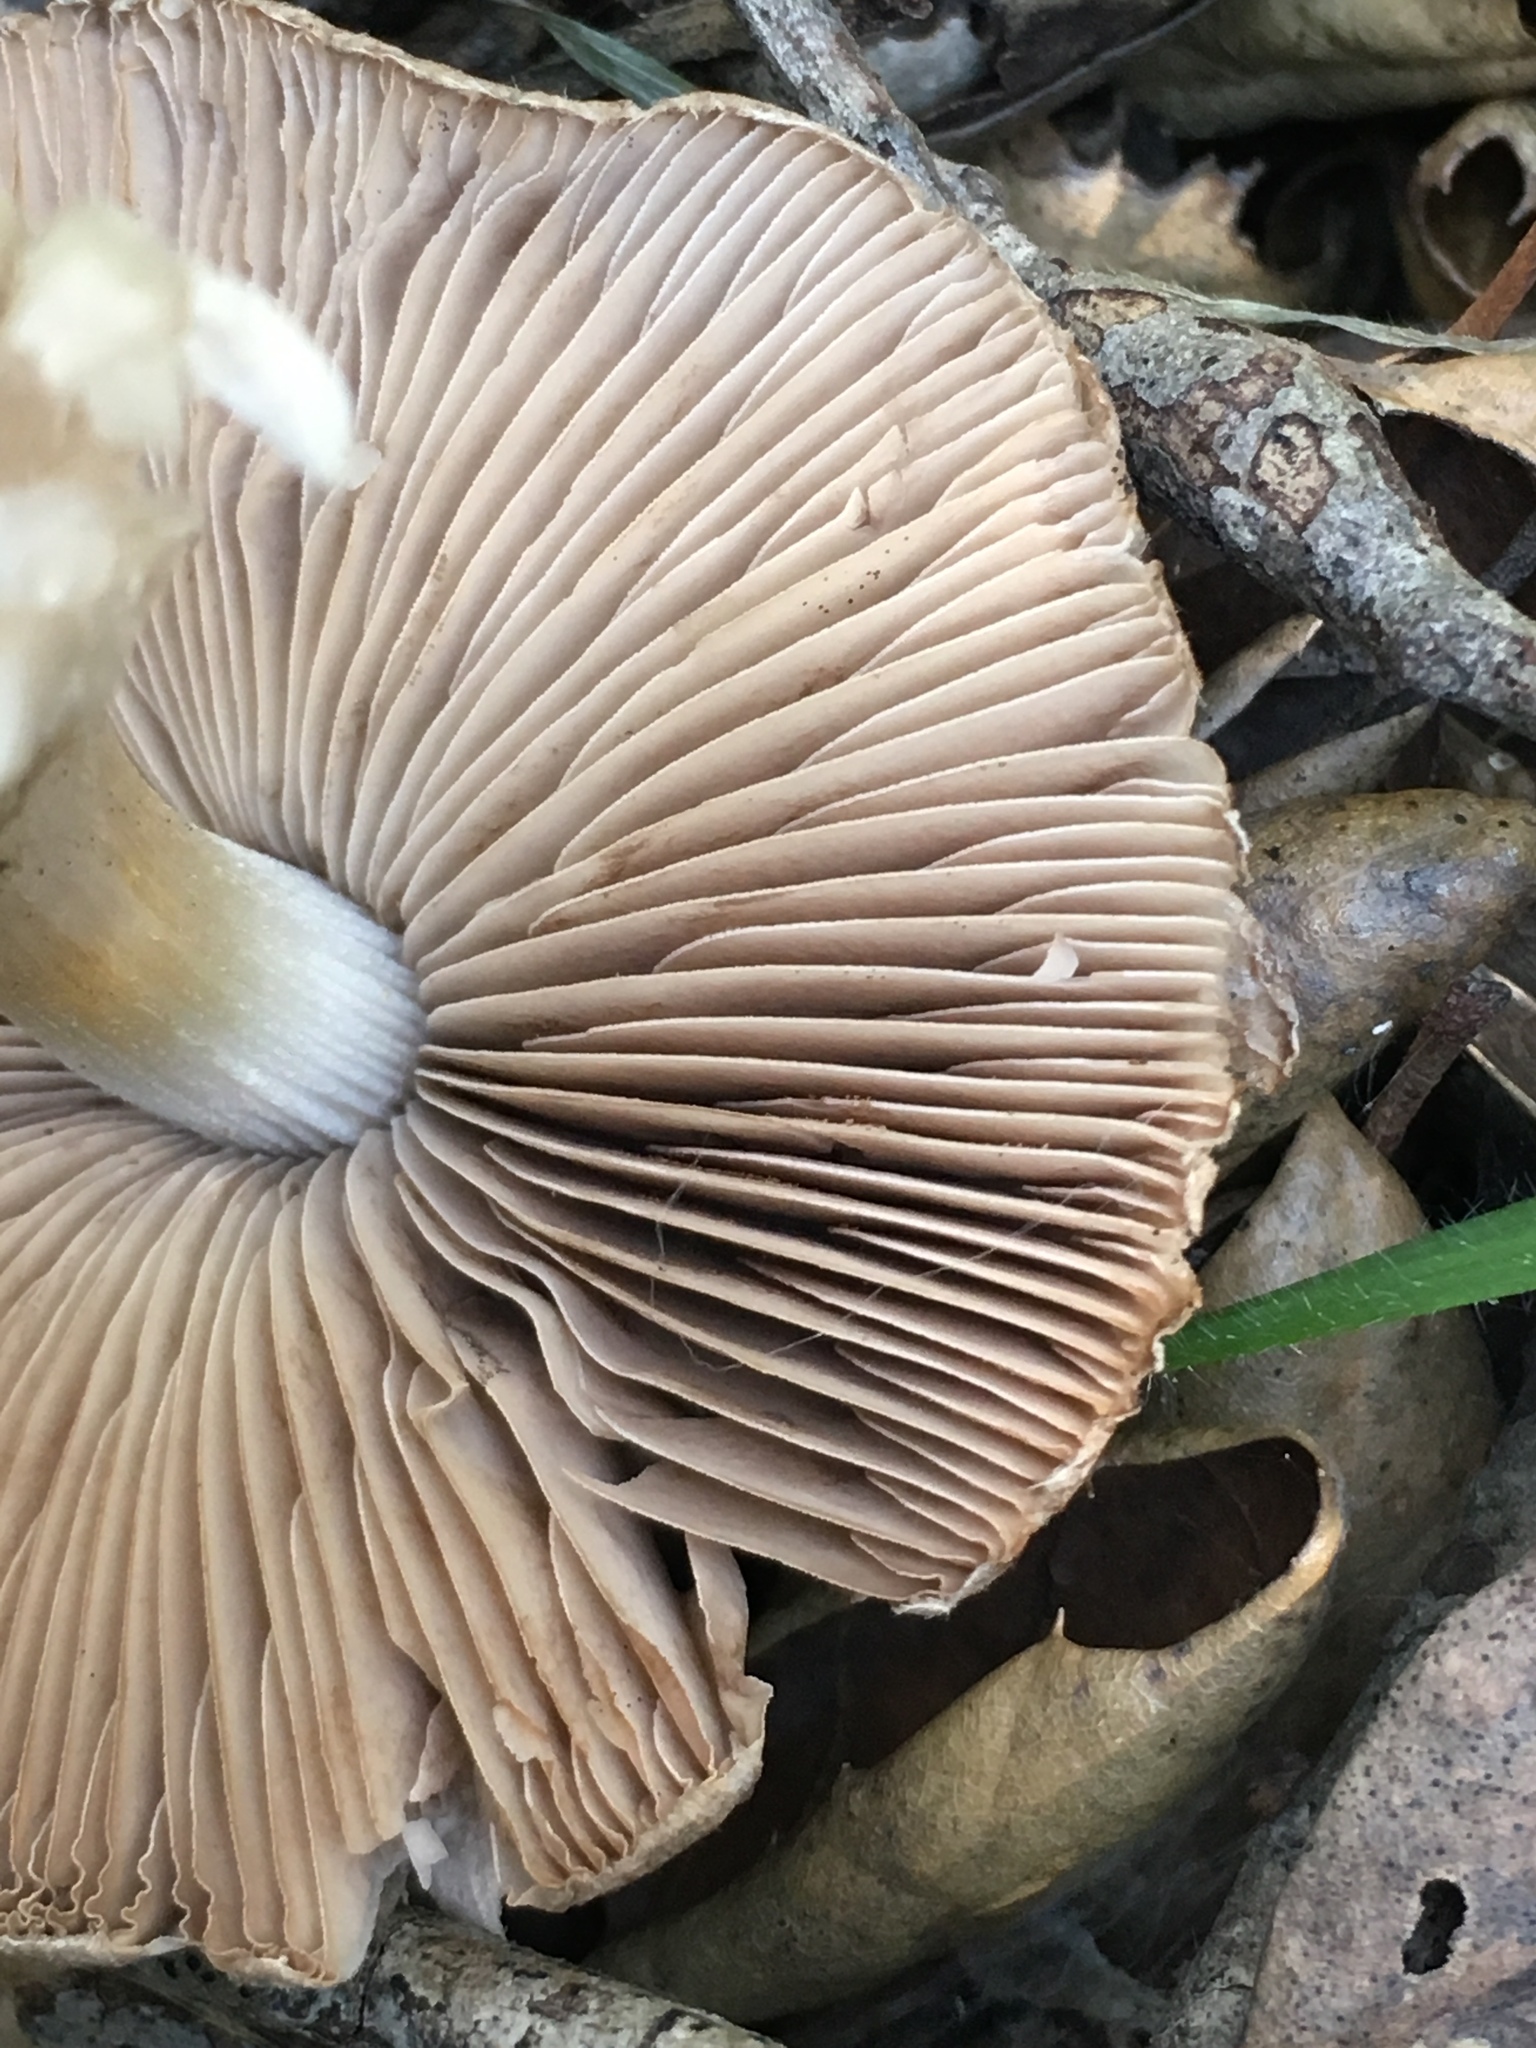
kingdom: Fungi
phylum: Basidiomycota
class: Agaricomycetes
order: Agaricales
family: Psathyrellaceae
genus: Psathyrella
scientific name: Psathyrella uliginicola
